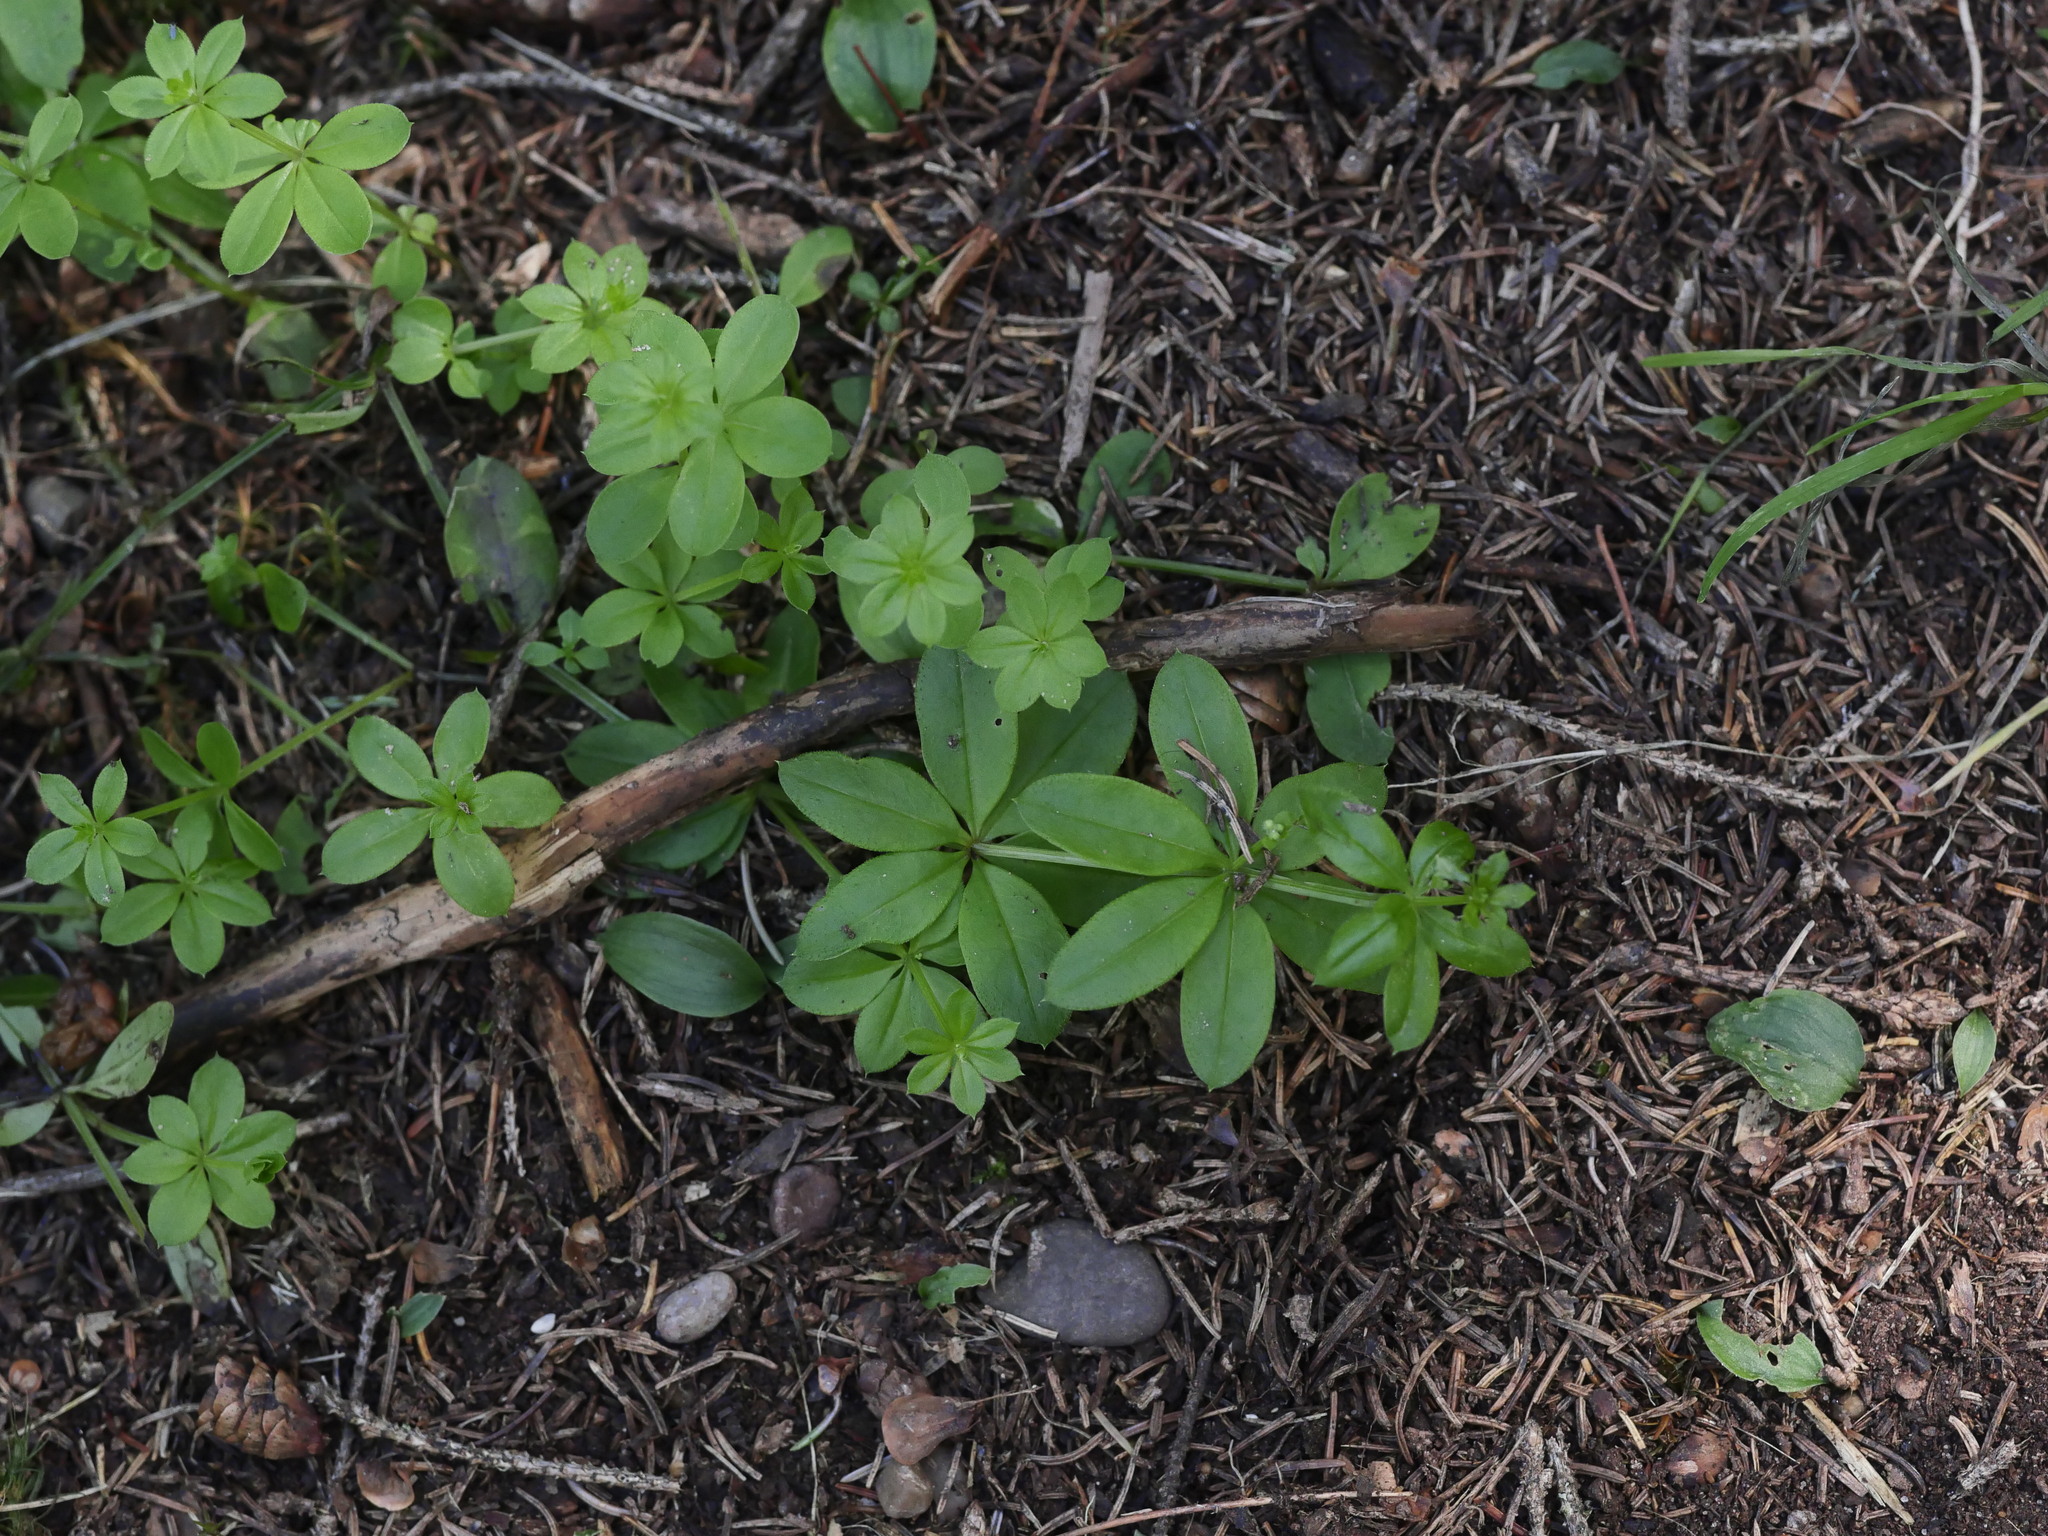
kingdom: Plantae
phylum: Tracheophyta
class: Magnoliopsida
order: Gentianales
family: Rubiaceae
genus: Galium
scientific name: Galium triflorum
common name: Fragrant bedstraw
